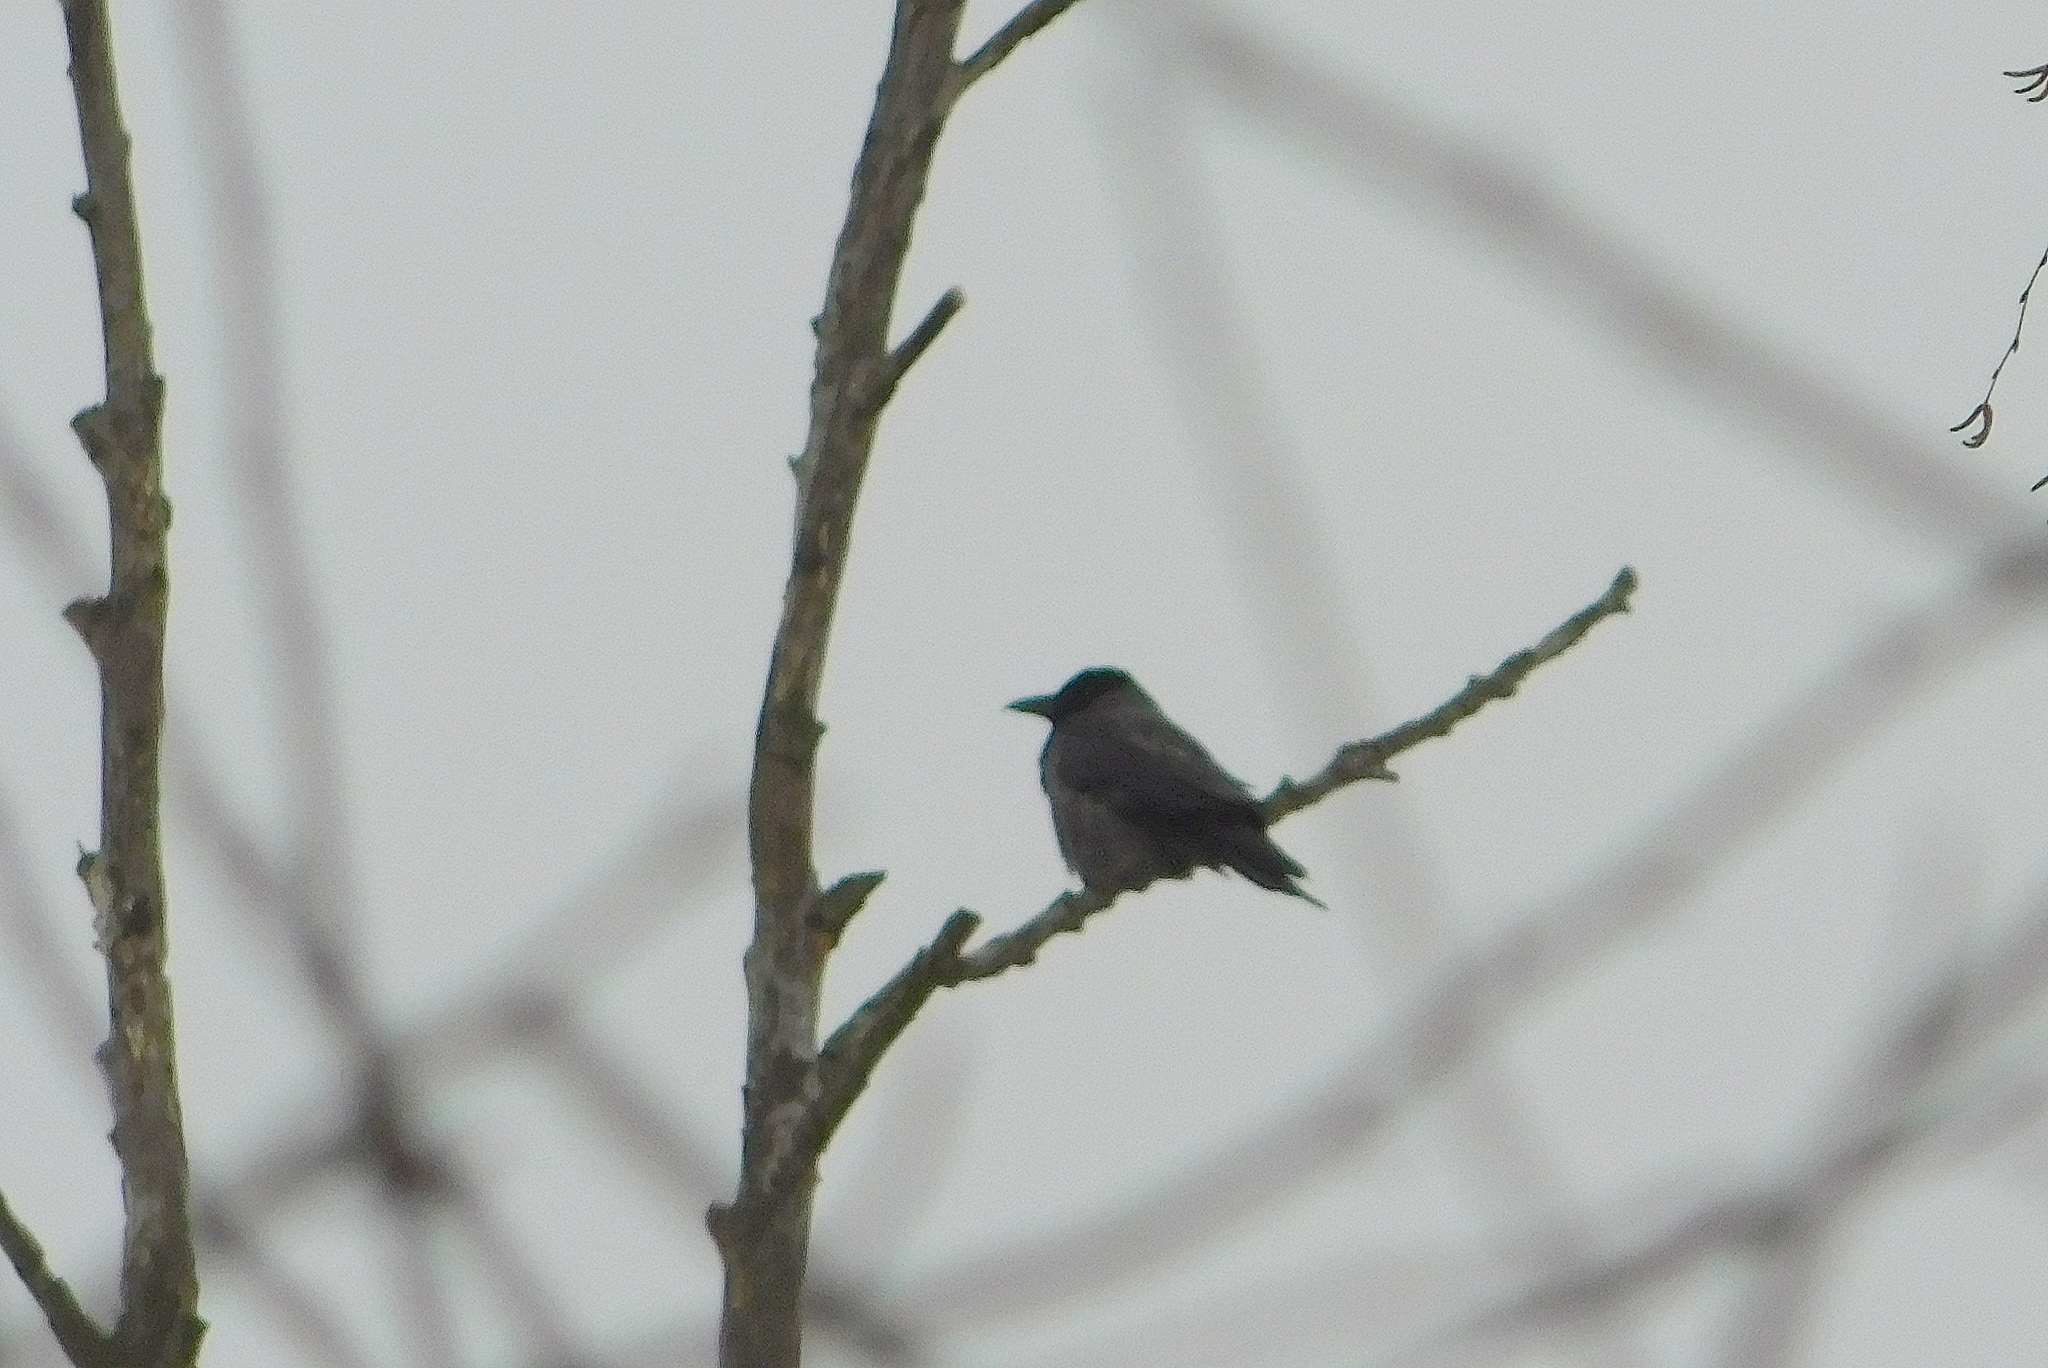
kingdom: Animalia
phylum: Chordata
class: Aves
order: Passeriformes
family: Corvidae
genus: Corvus
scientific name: Corvus cornix
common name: Hooded crow
